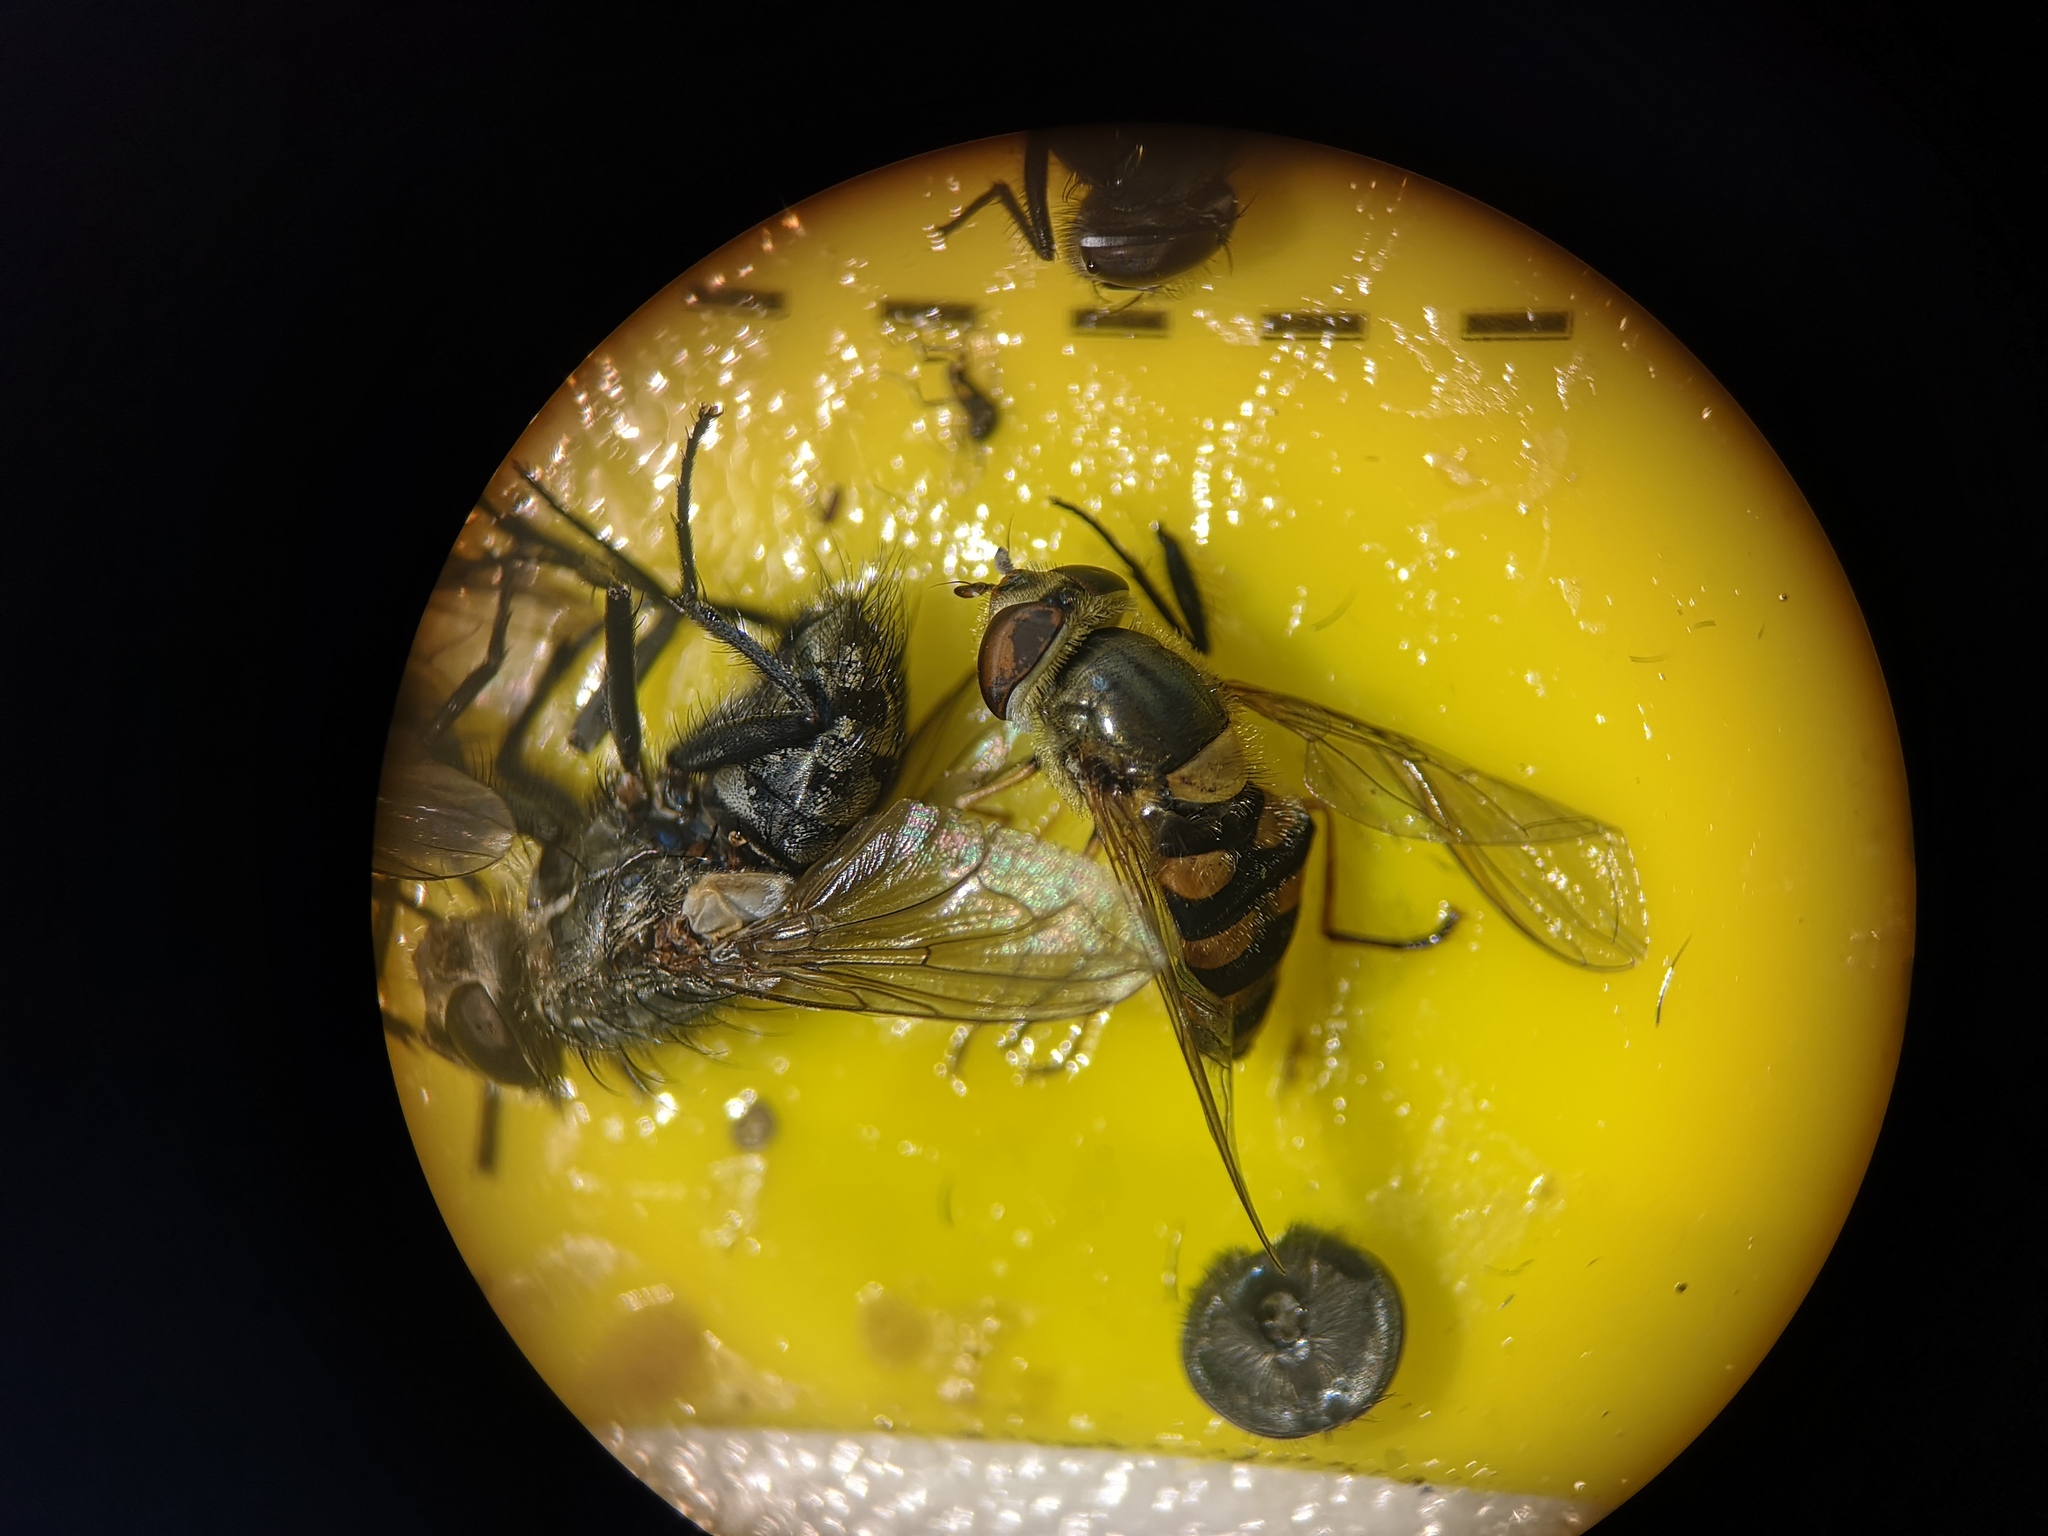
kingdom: Animalia
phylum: Arthropoda
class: Insecta
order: Diptera
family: Syrphidae
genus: Syrphus
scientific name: Syrphus
